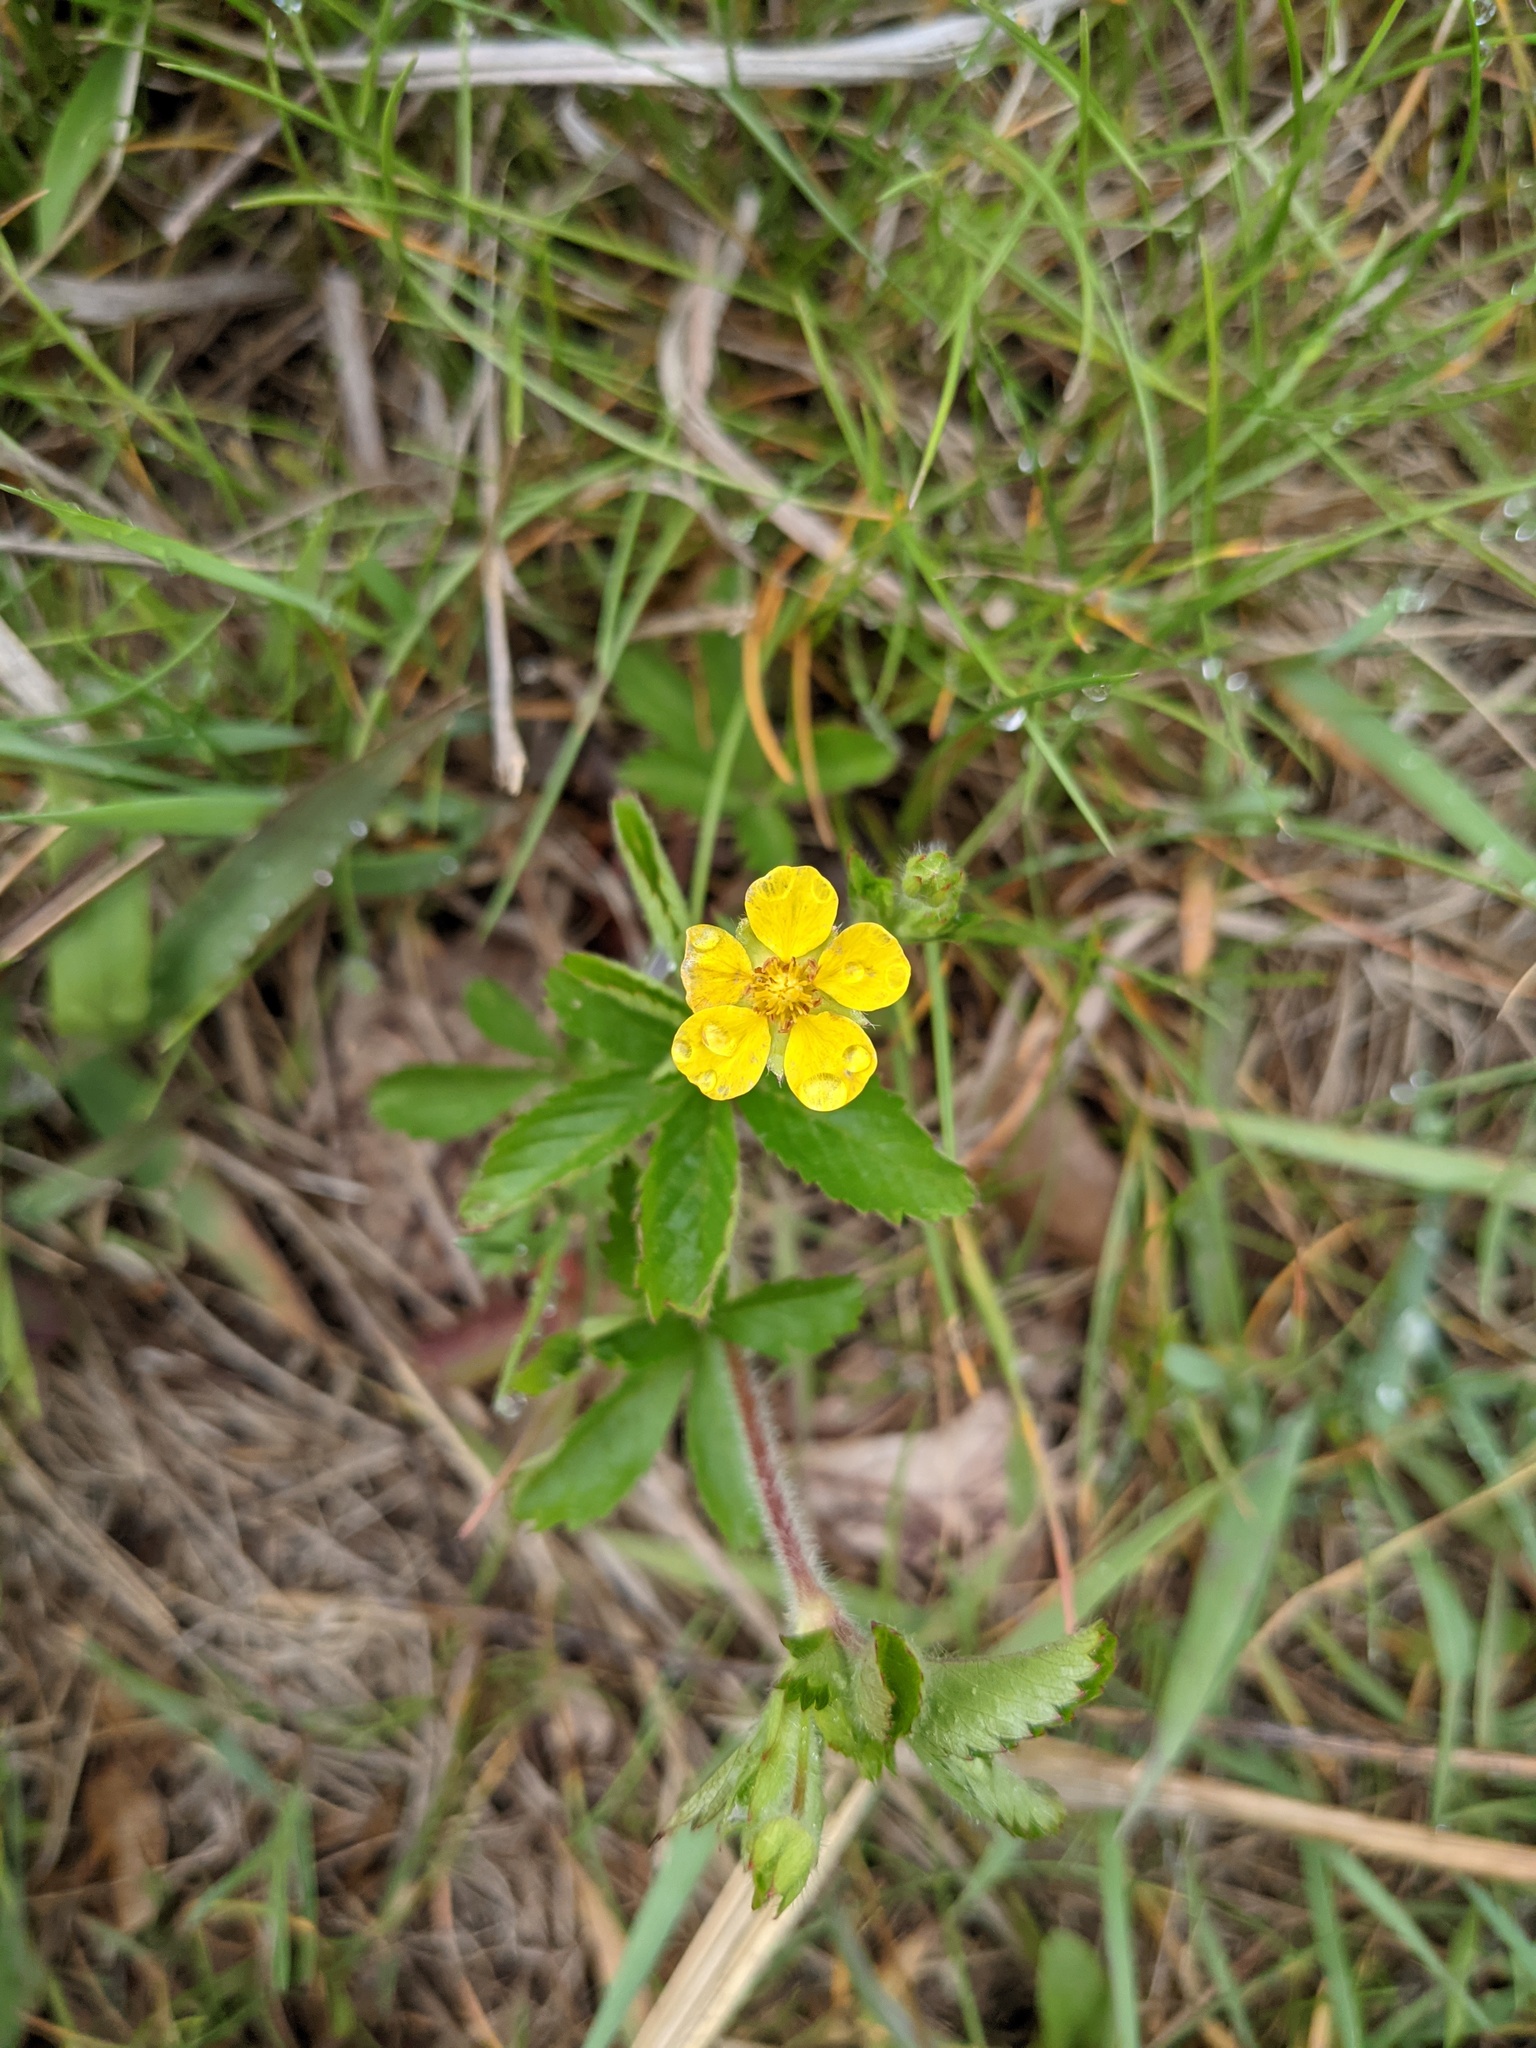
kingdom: Plantae
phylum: Tracheophyta
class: Magnoliopsida
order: Rosales
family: Rosaceae
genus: Potentilla
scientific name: Potentilla simplex
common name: Old field cinquefoil
